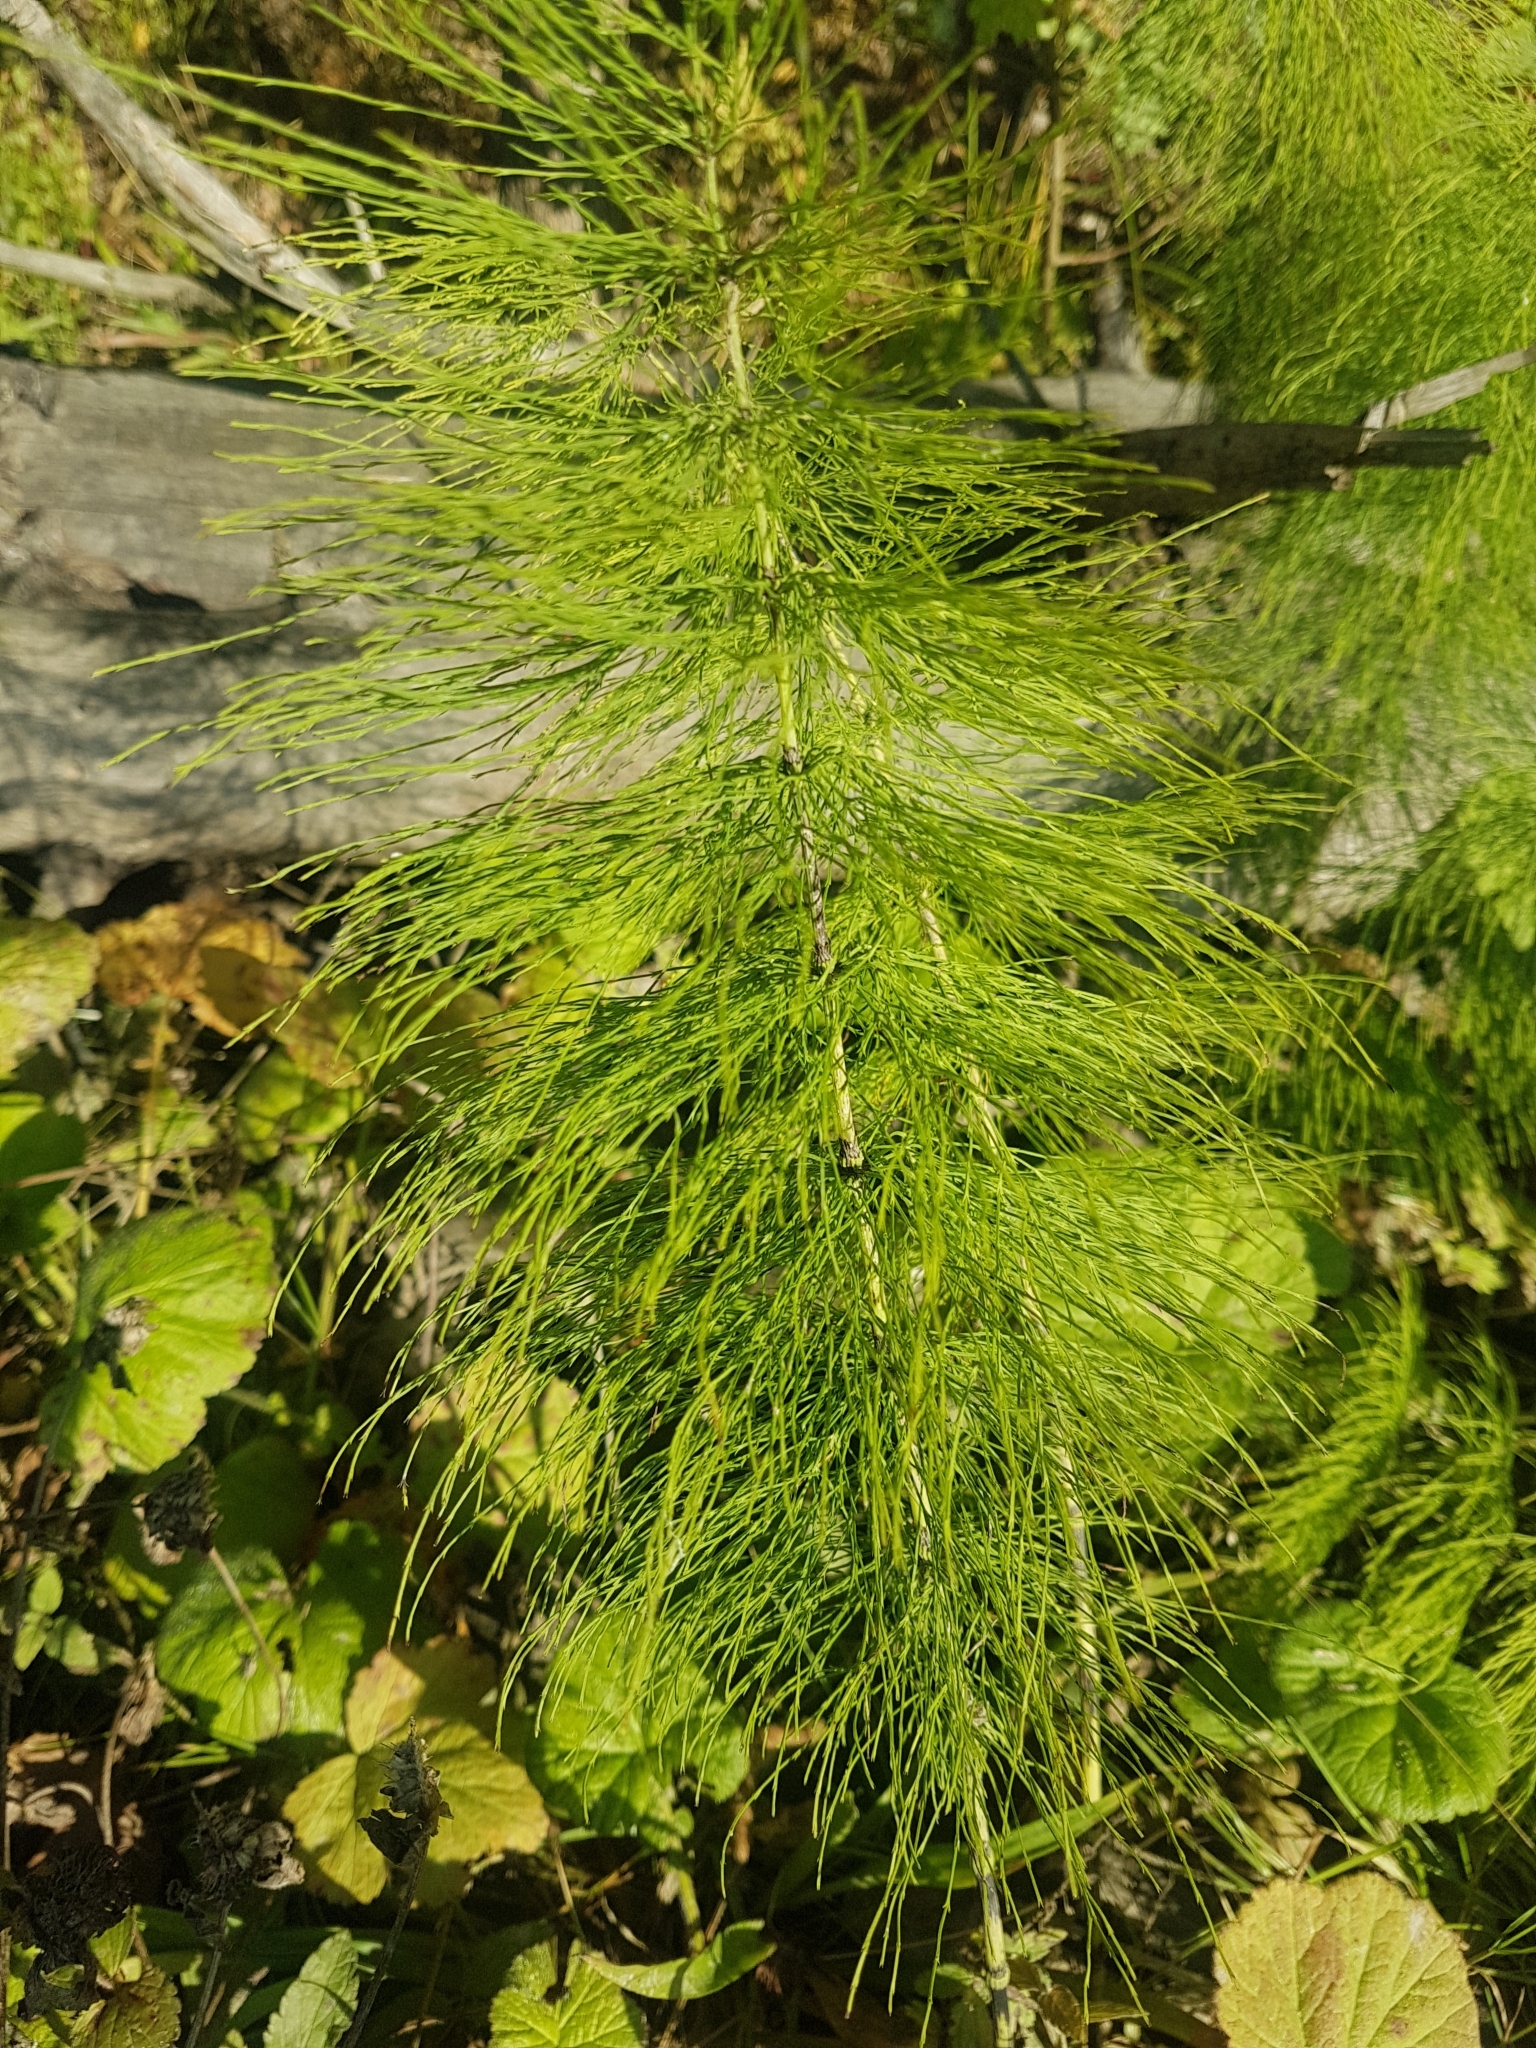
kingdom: Plantae
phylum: Tracheophyta
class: Polypodiopsida
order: Equisetales
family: Equisetaceae
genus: Equisetum
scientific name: Equisetum sylvaticum
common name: Wood horsetail
